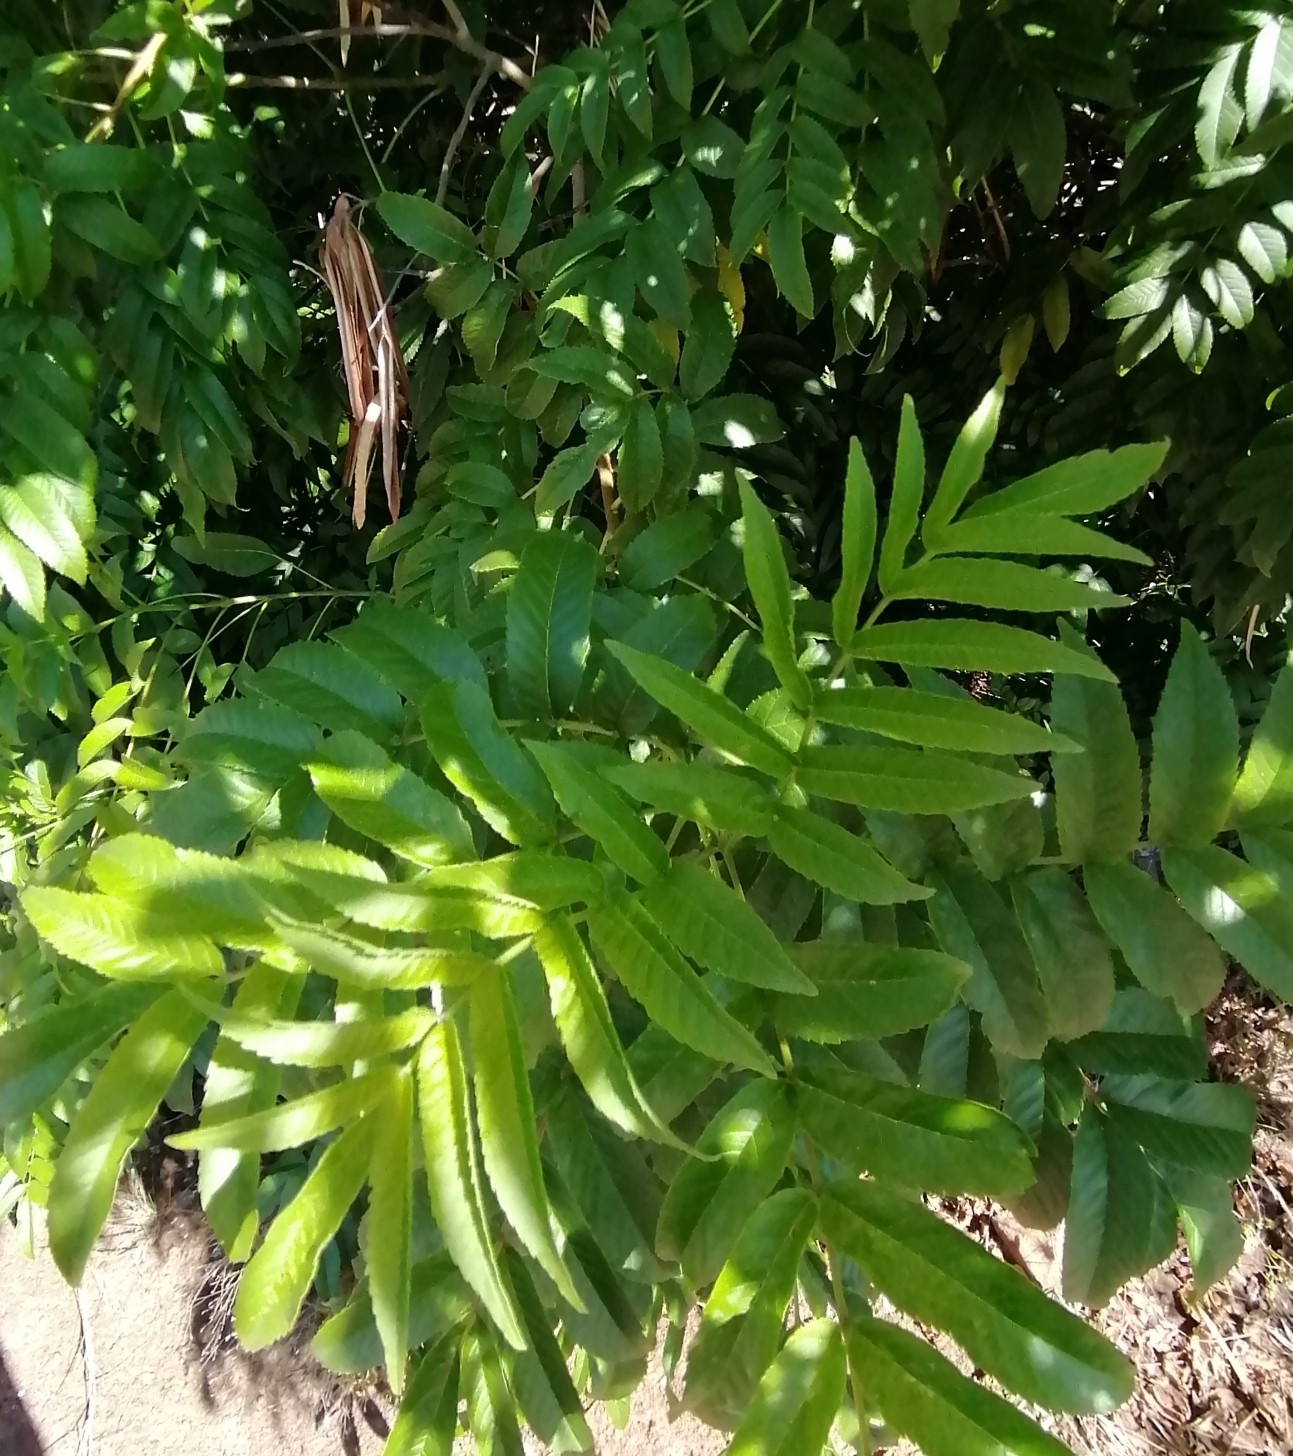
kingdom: Plantae
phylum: Tracheophyta
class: Magnoliopsida
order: Lamiales
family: Bignoniaceae
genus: Tecoma
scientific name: Tecoma stans
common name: Yellow trumpetbush
